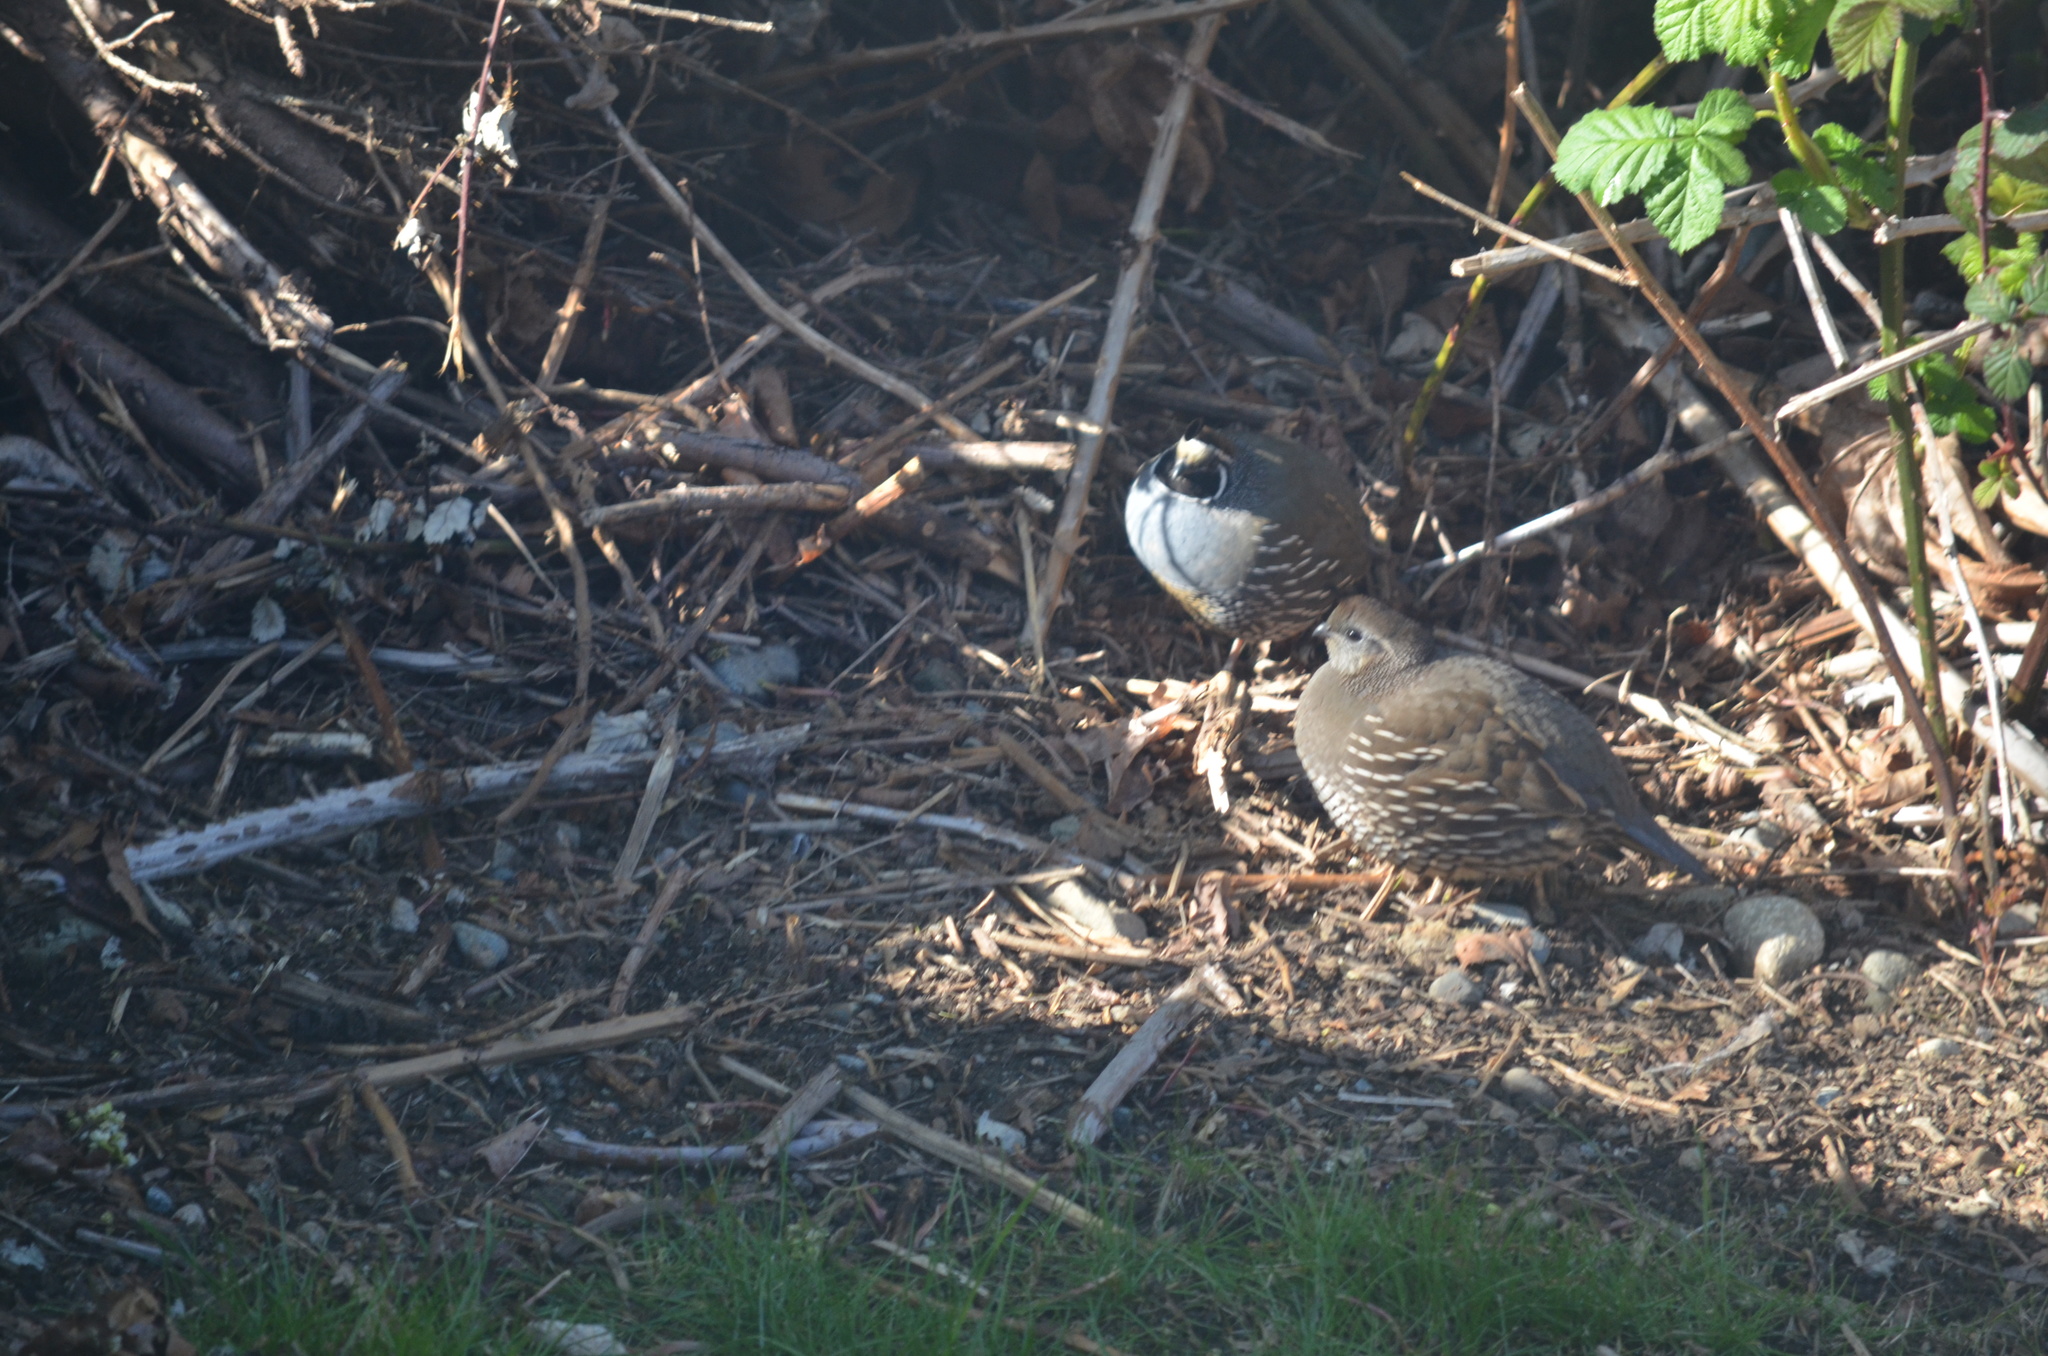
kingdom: Animalia
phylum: Chordata
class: Aves
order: Galliformes
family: Odontophoridae
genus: Callipepla
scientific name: Callipepla californica
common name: California quail
